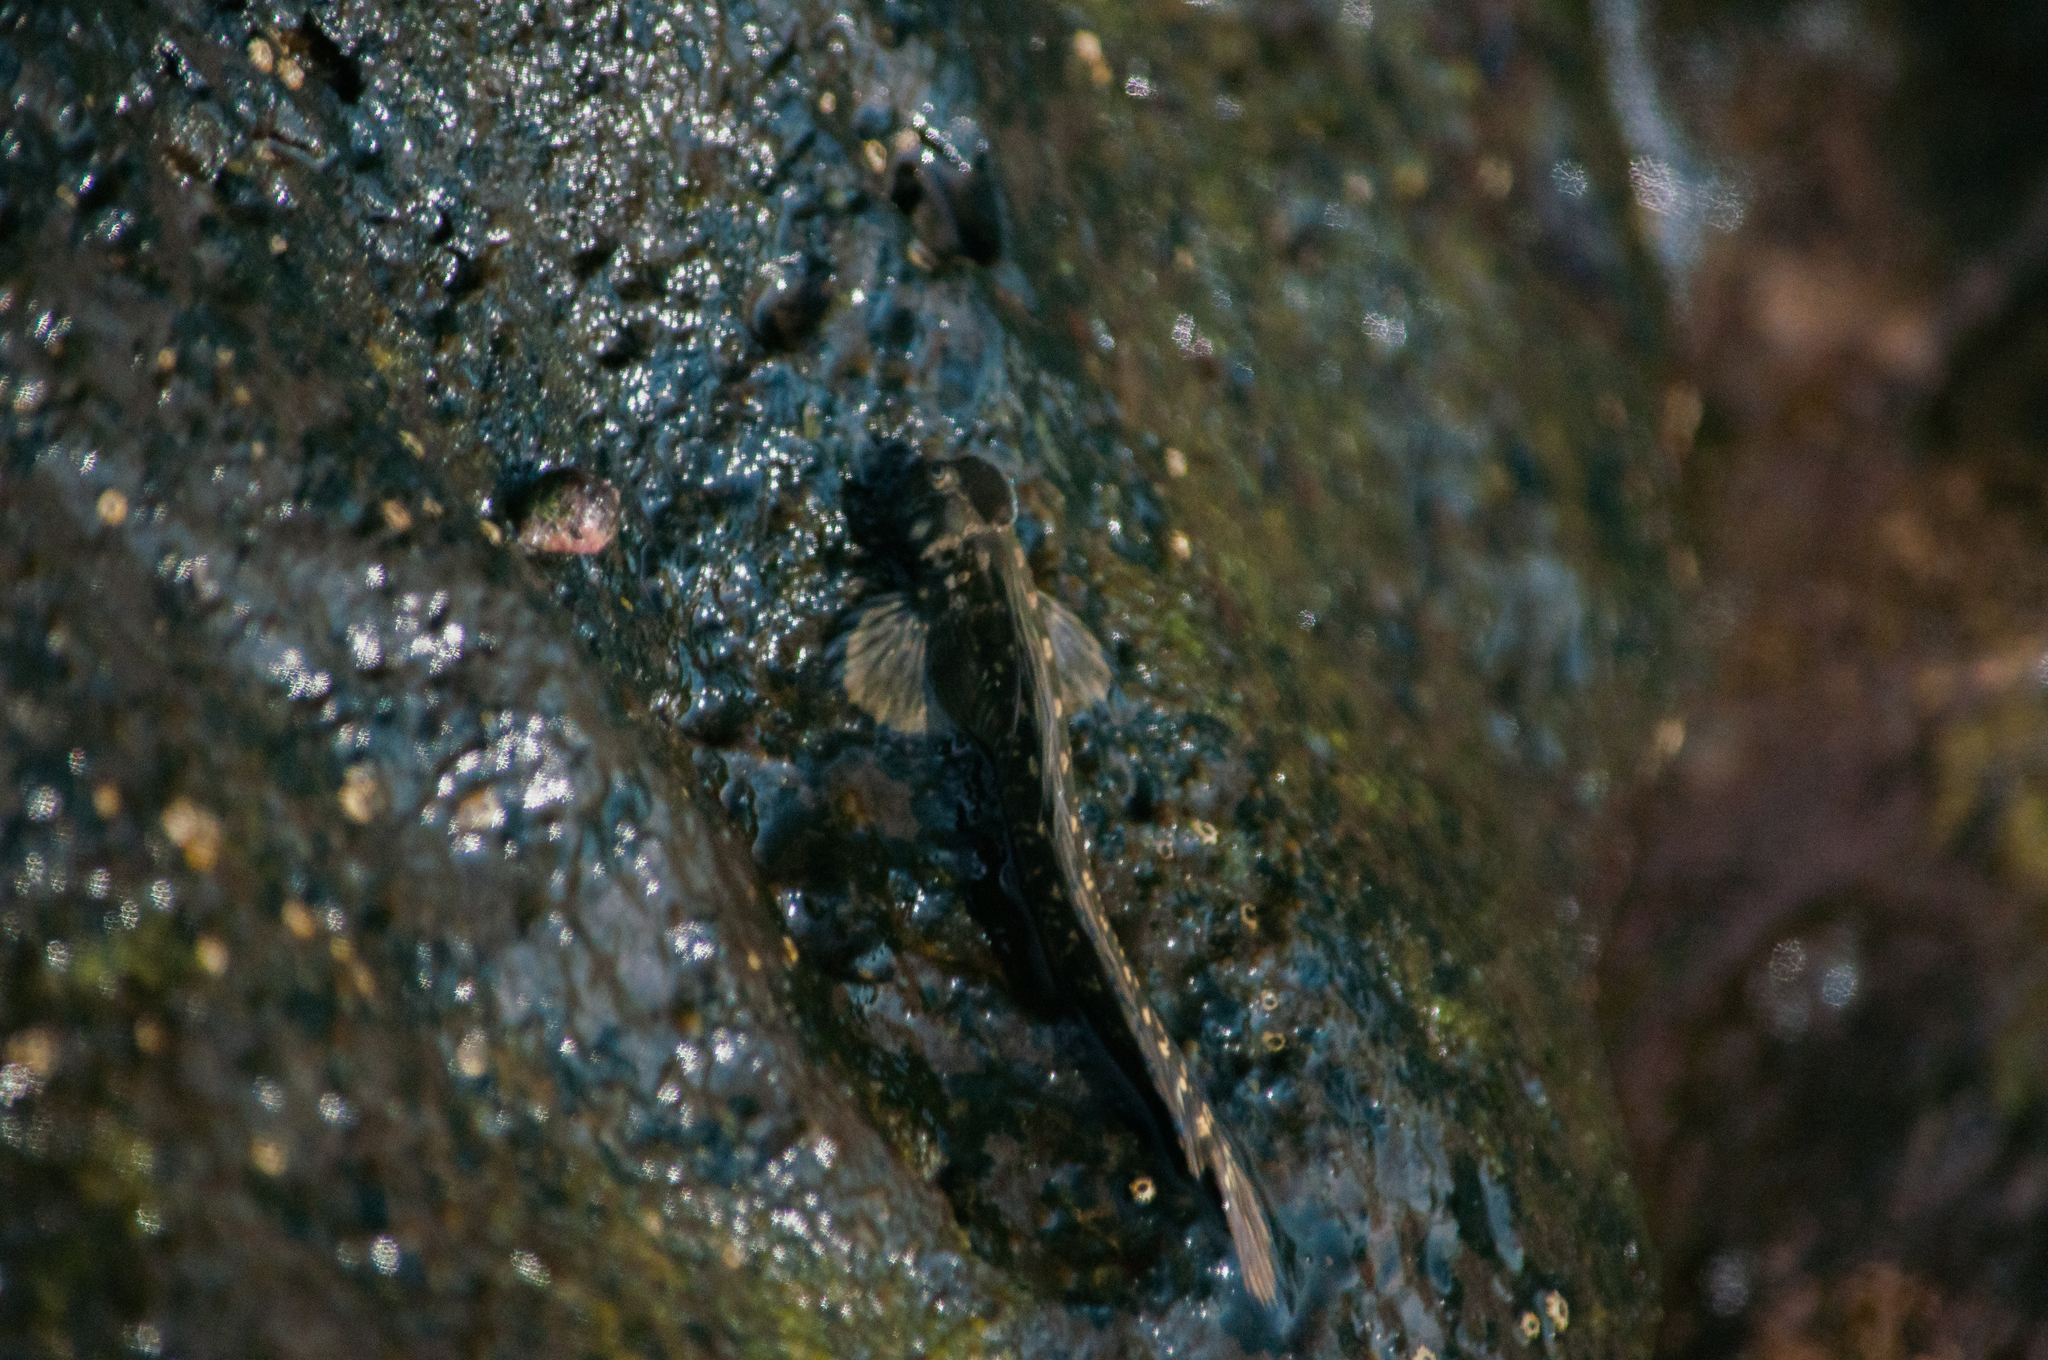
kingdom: Animalia
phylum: Chordata
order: Perciformes
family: Blenniidae
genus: Alticus
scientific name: Alticus monochrus
